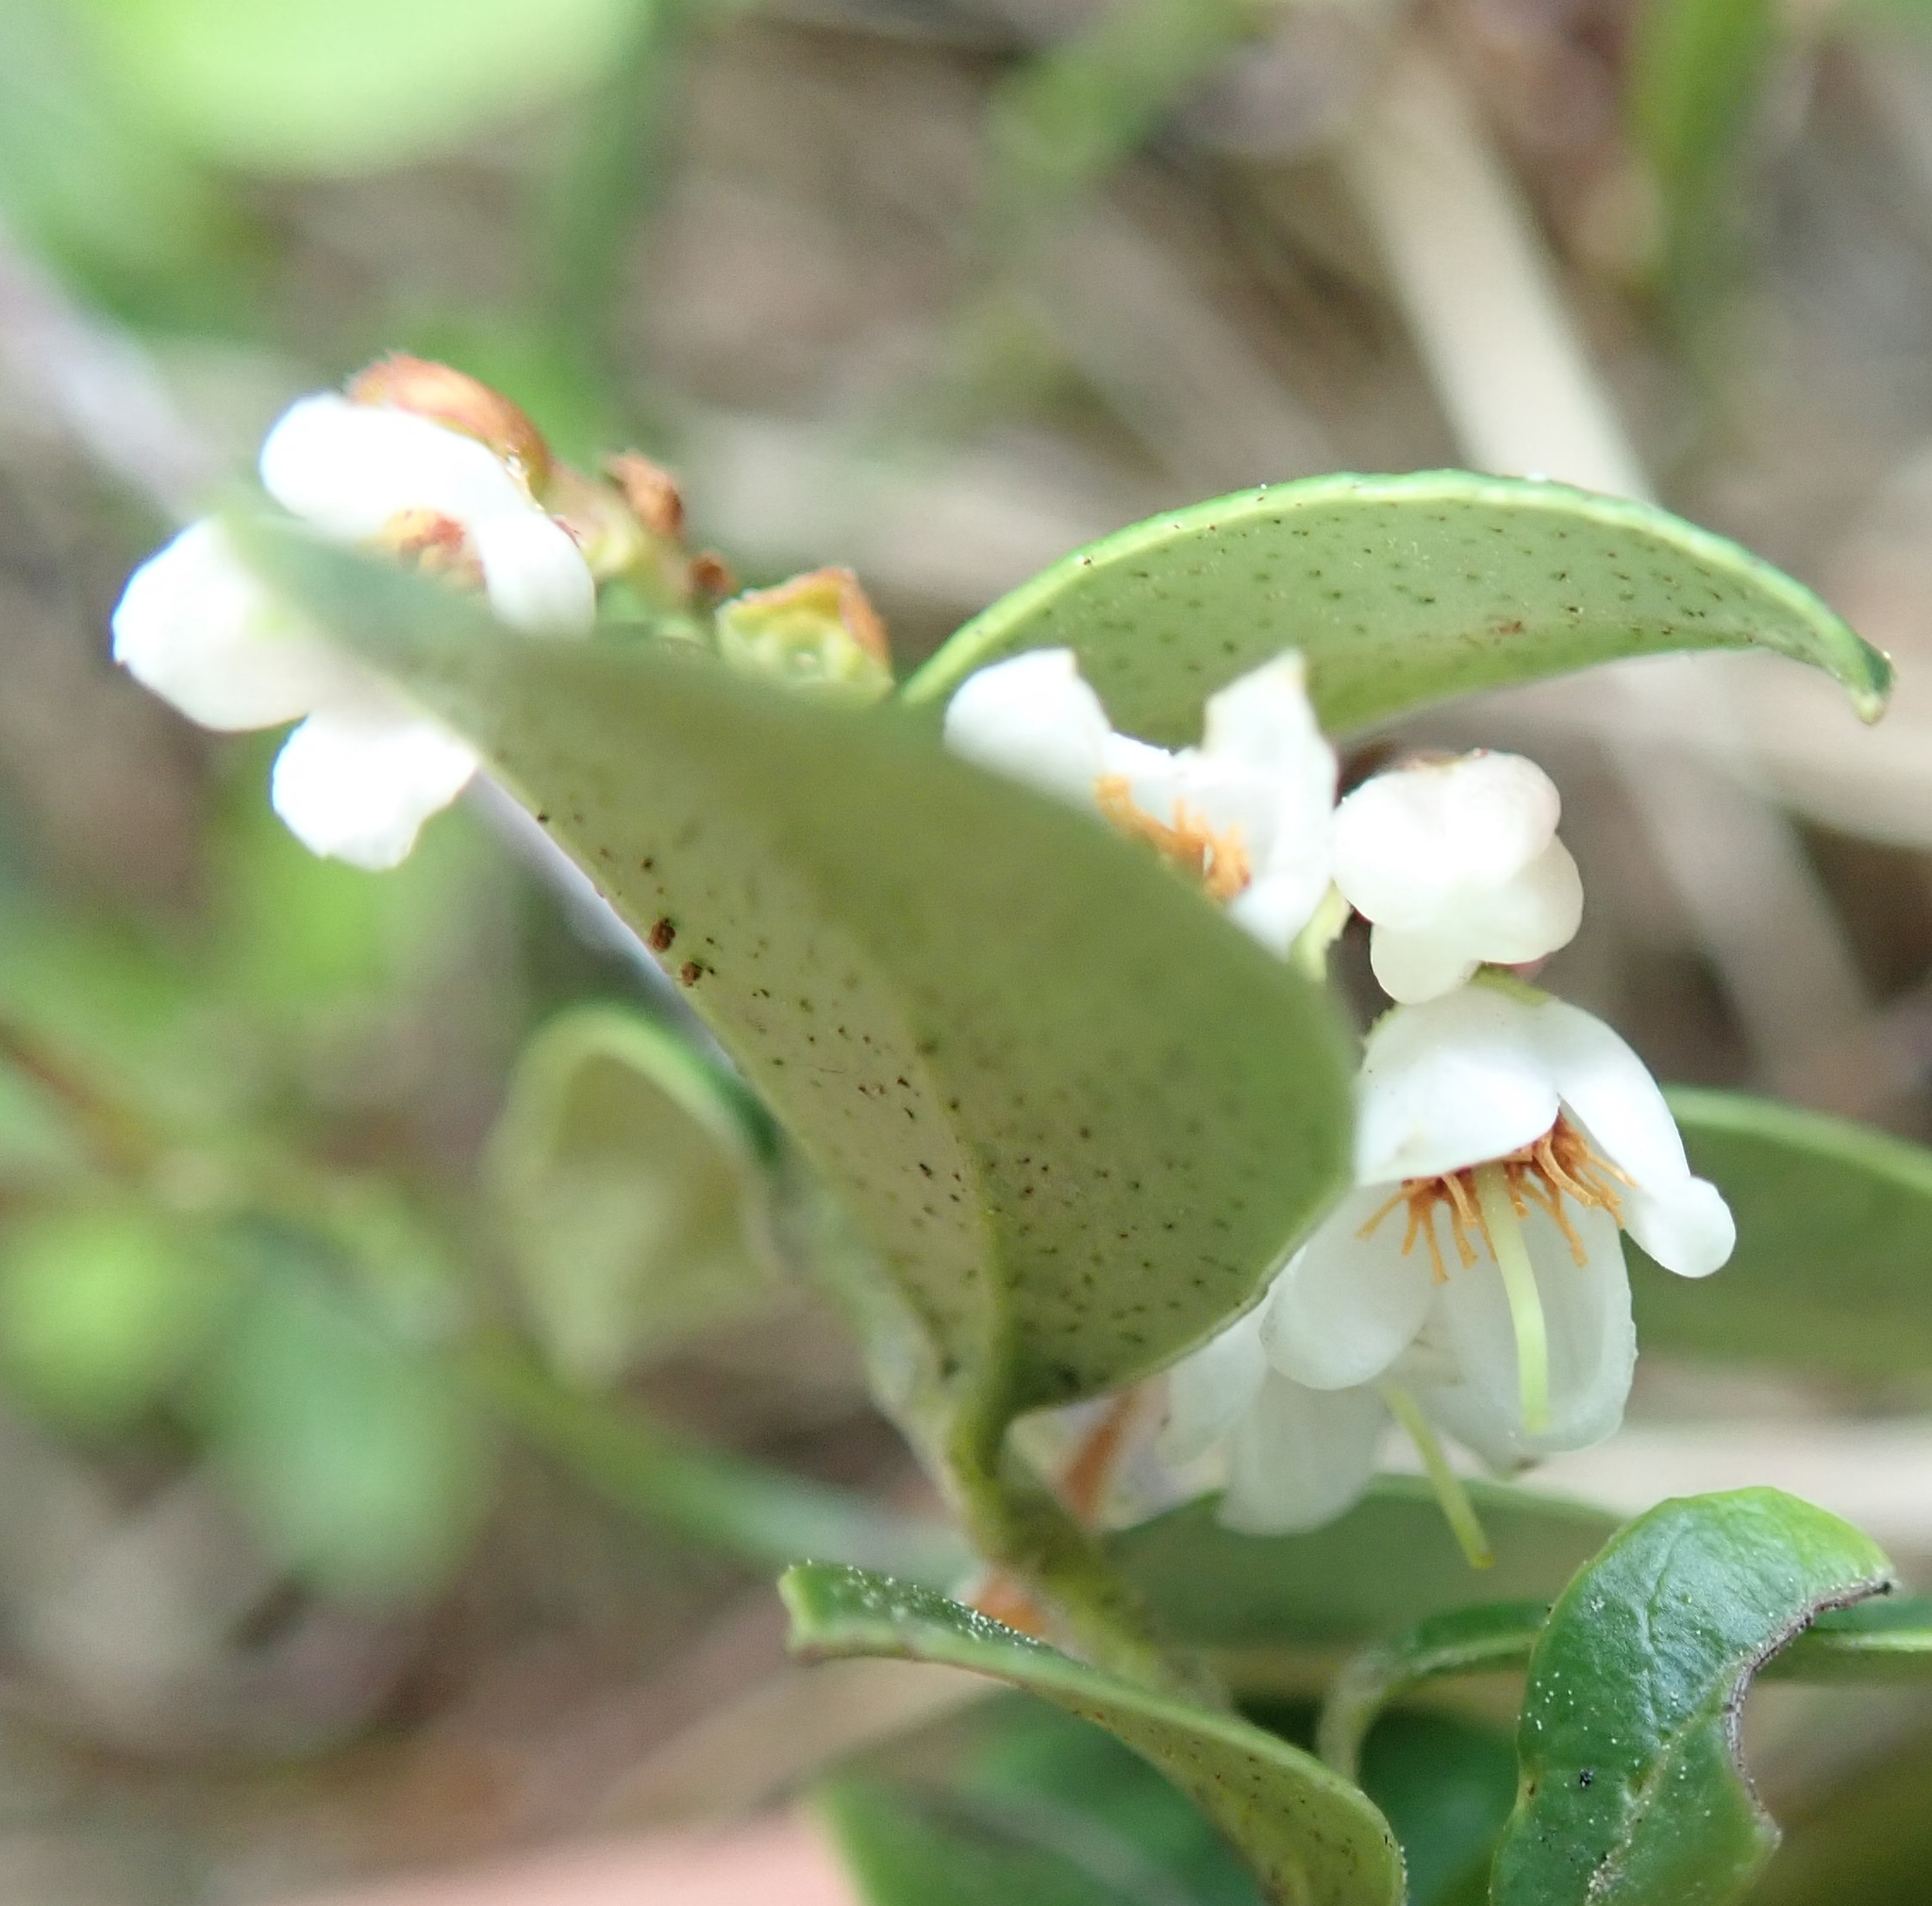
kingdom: Plantae
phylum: Tracheophyta
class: Magnoliopsida
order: Ericales
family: Ericaceae
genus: Vaccinium
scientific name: Vaccinium vitis-idaea
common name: Cowberry
